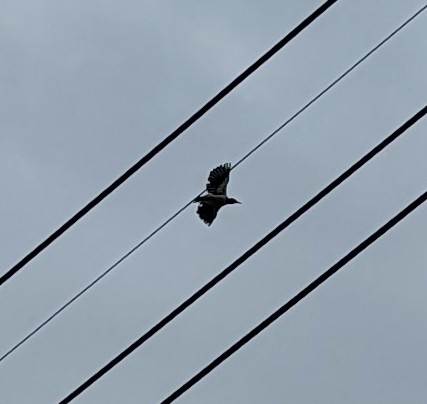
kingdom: Animalia
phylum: Chordata
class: Aves
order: Passeriformes
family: Sturnidae
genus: Gracupica
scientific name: Gracupica nigricollis
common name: Black-collared starling
